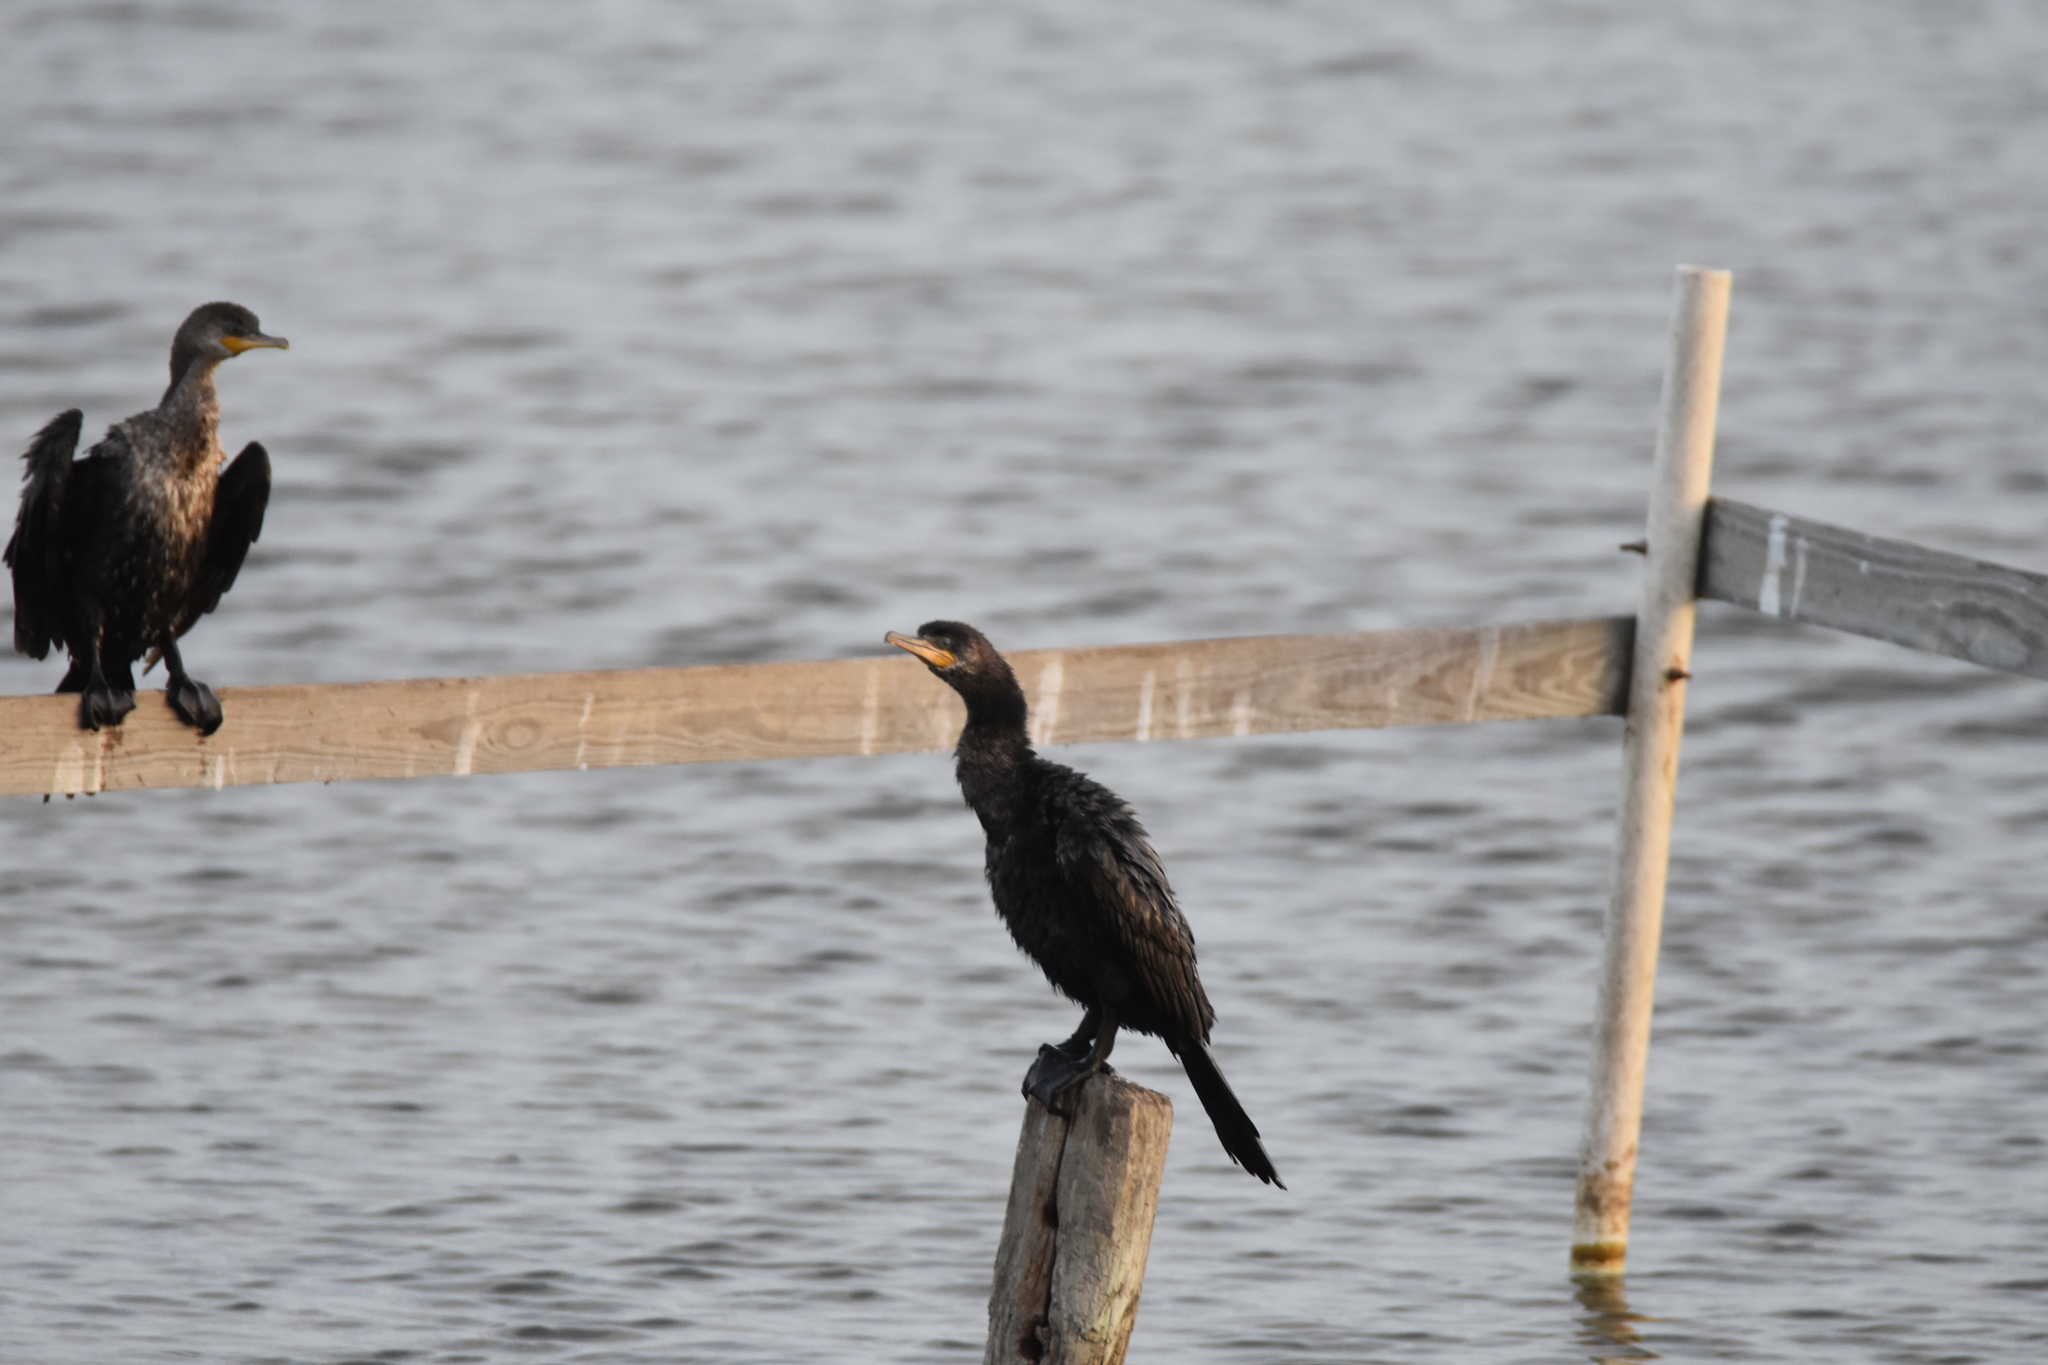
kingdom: Animalia
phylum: Chordata
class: Aves
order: Suliformes
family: Phalacrocoracidae
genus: Phalacrocorax
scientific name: Phalacrocorax brasilianus
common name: Neotropic cormorant
